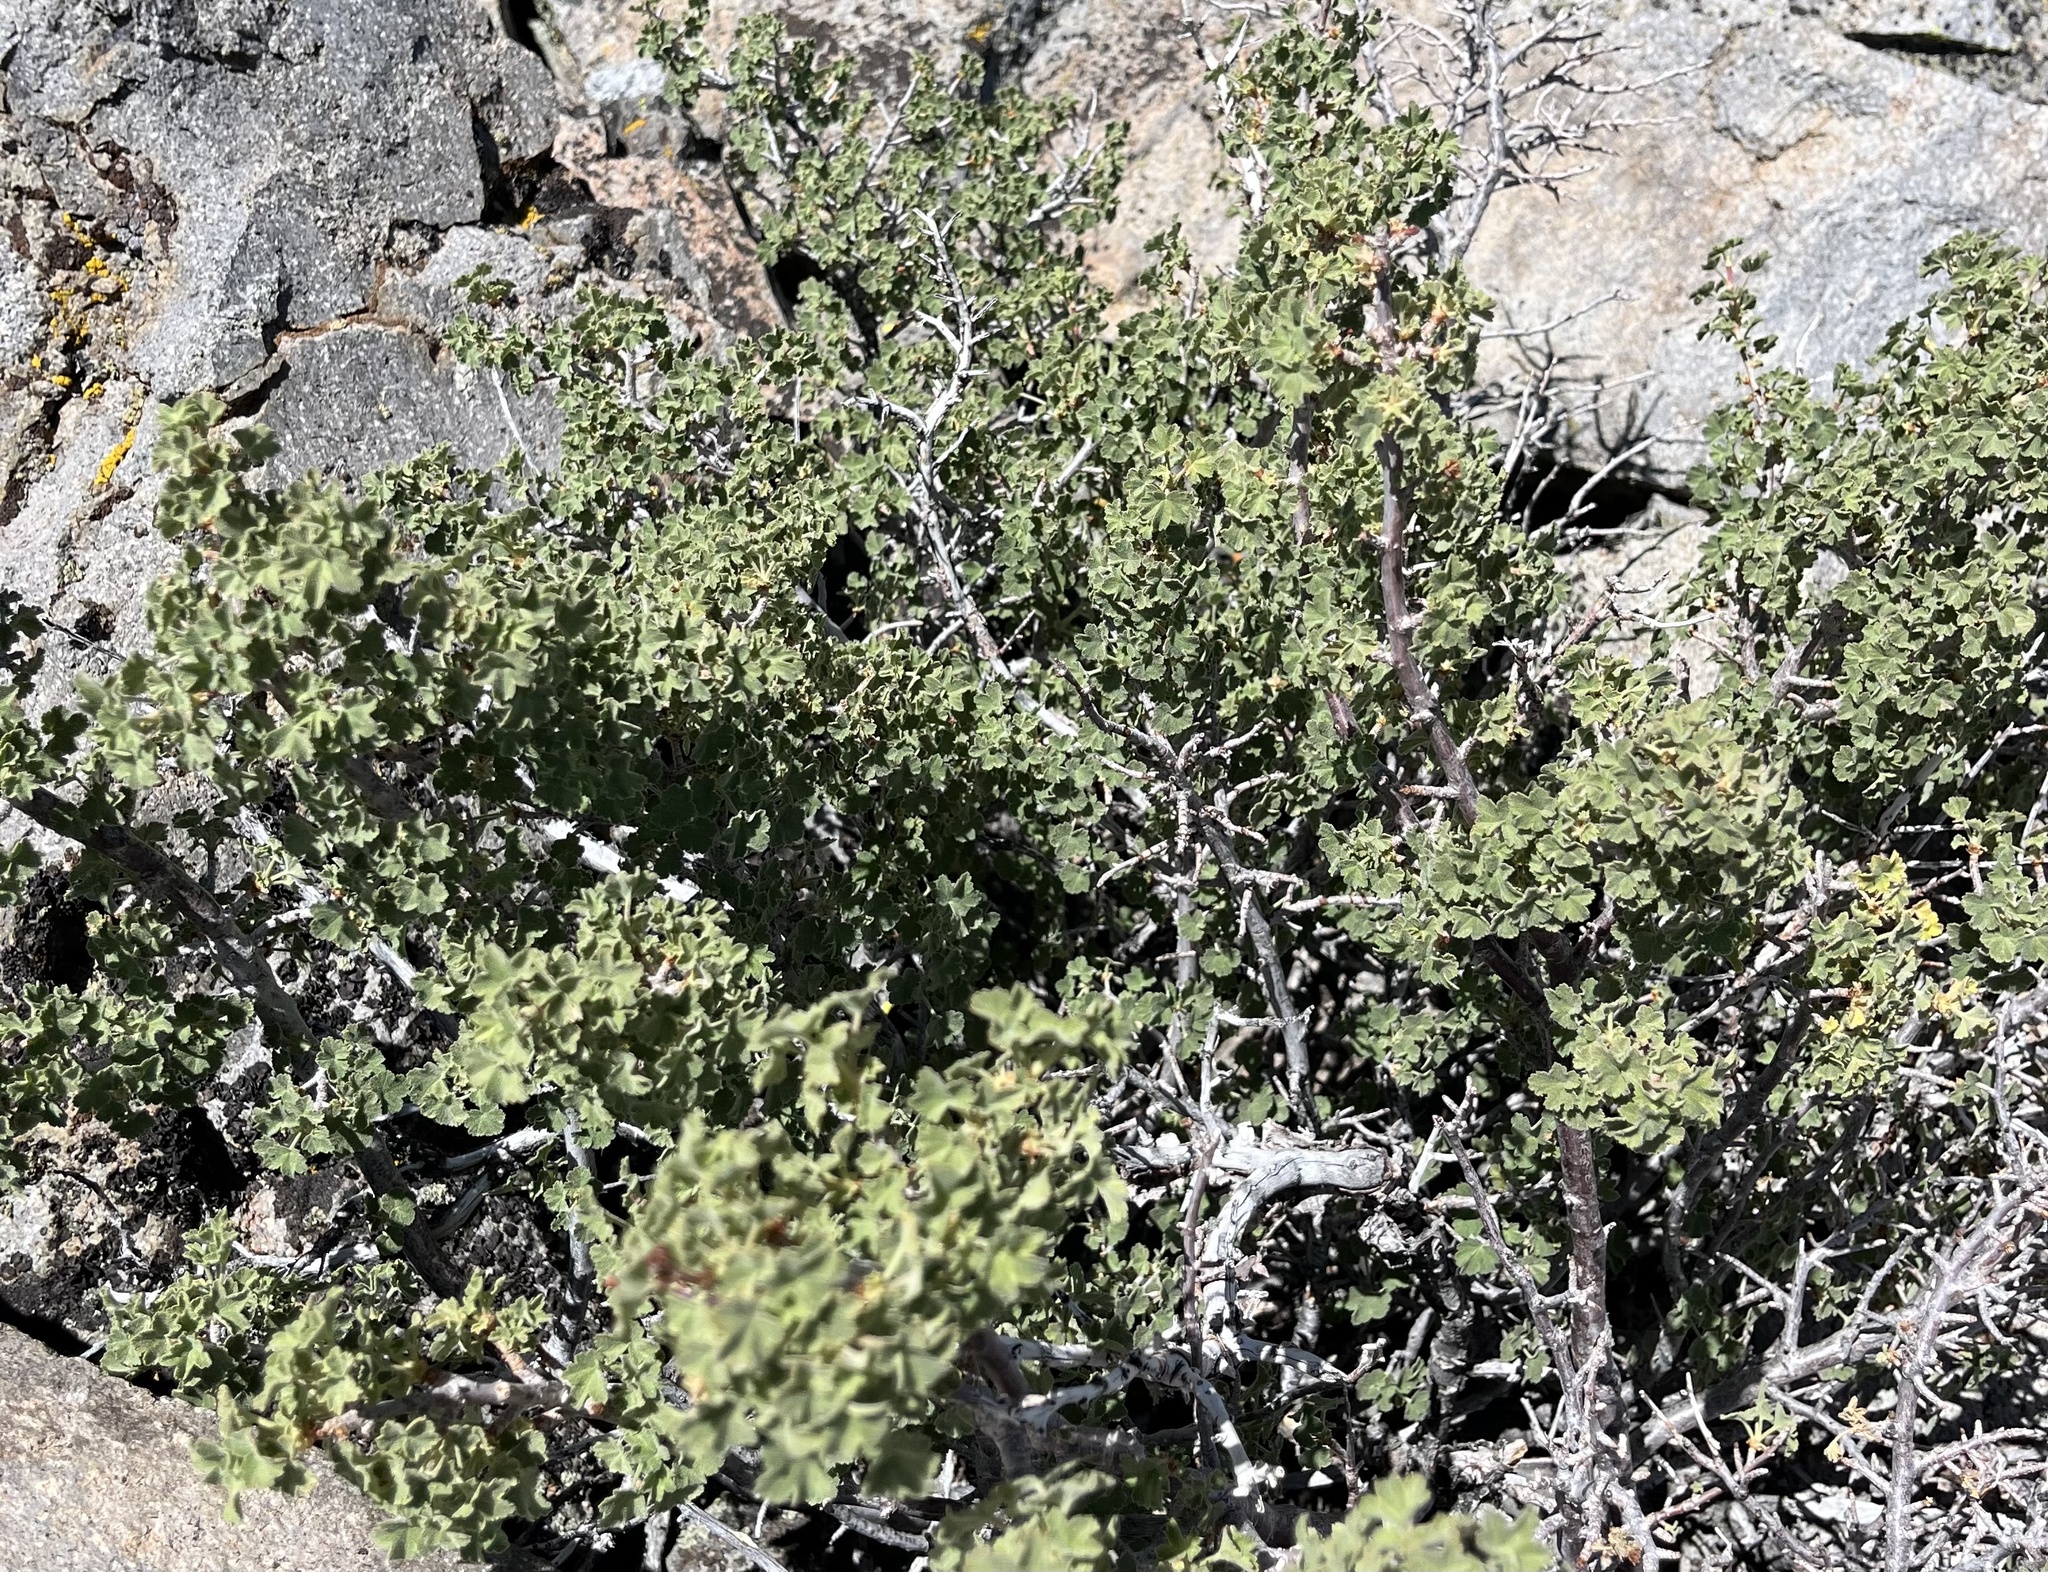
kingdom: Plantae
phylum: Tracheophyta
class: Magnoliopsida
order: Saxifragales
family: Grossulariaceae
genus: Ribes
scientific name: Ribes cereum
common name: Wax currant
